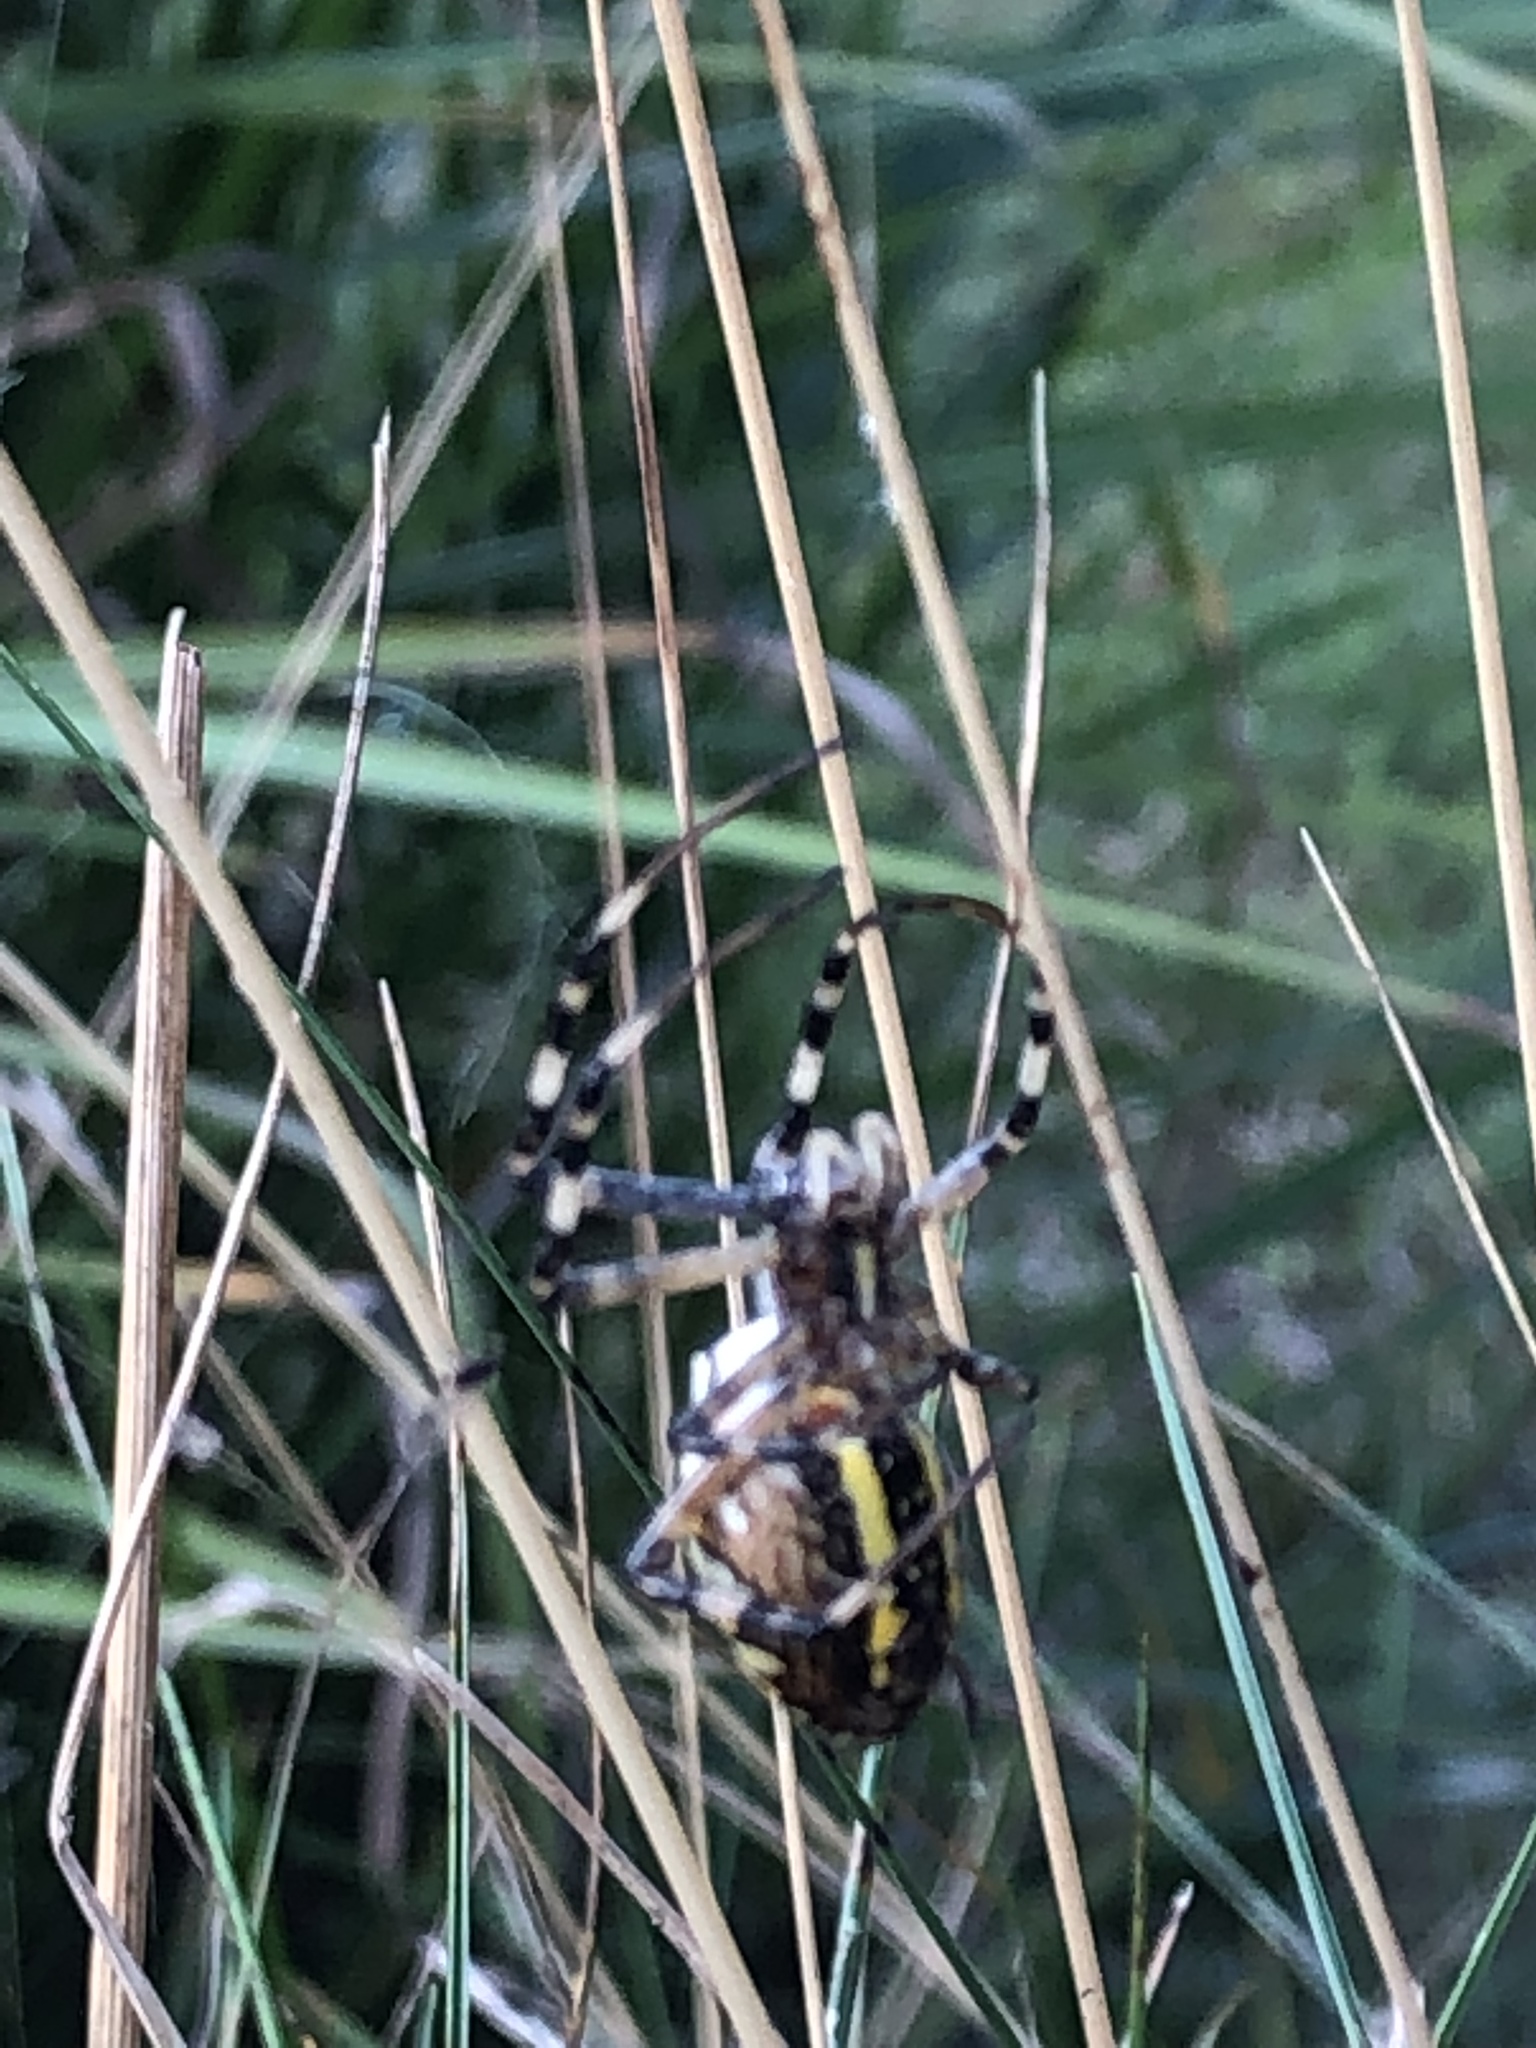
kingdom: Animalia
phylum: Arthropoda
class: Arachnida
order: Araneae
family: Araneidae
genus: Argiope
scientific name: Argiope bruennichi
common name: Wasp spider
